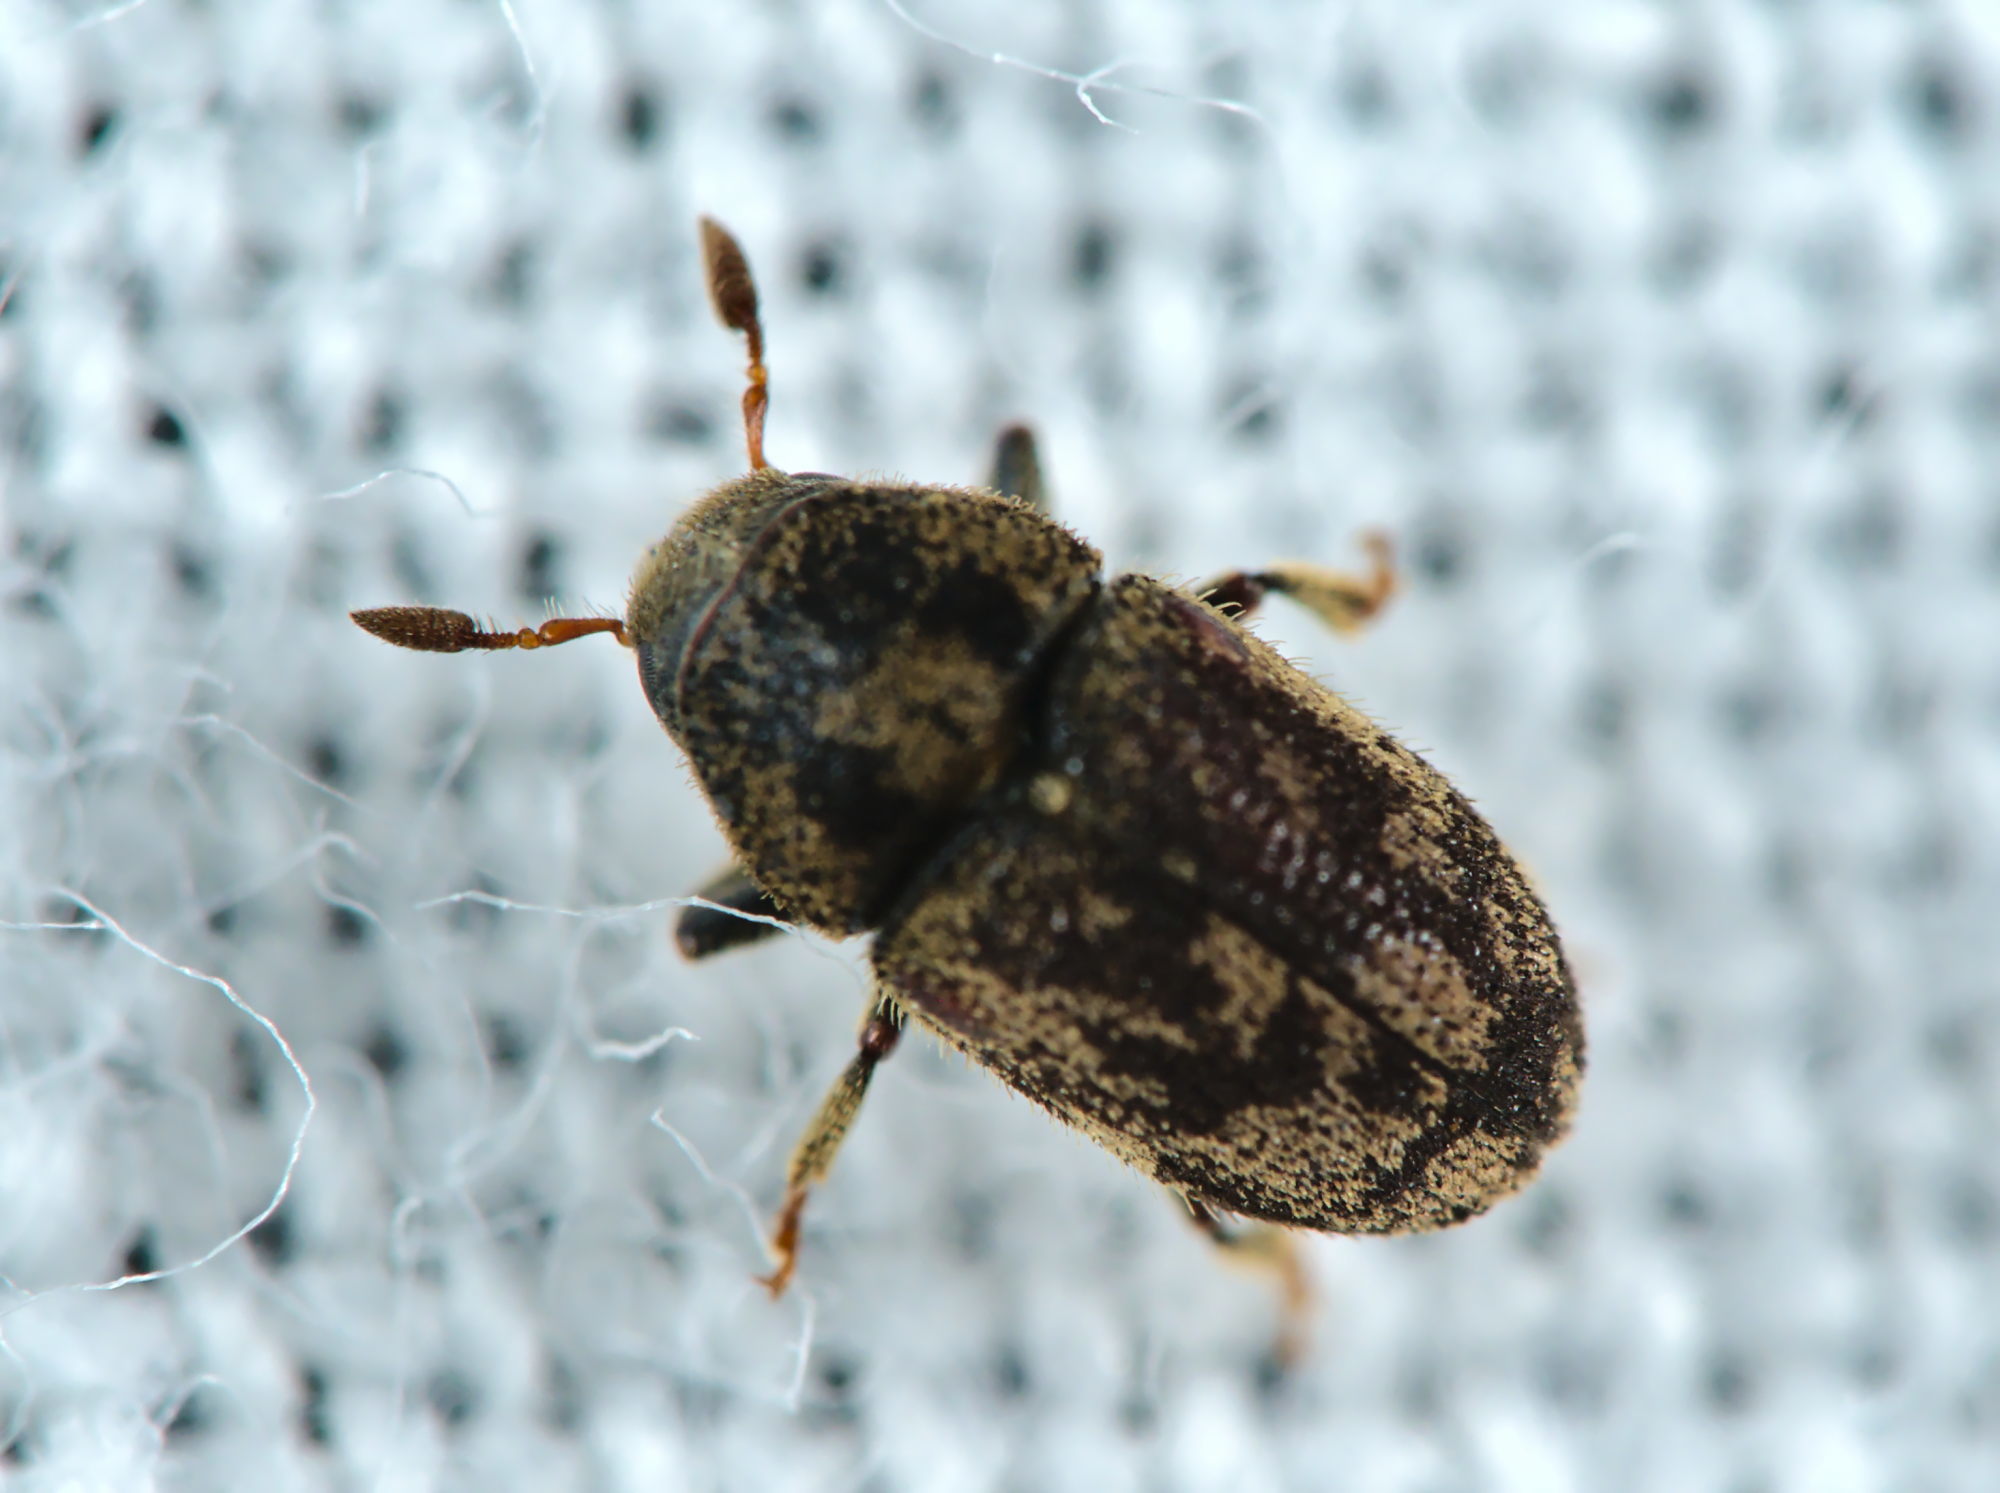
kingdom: Animalia
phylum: Arthropoda
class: Insecta
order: Coleoptera
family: Curculionidae
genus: Hylesinus
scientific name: Hylesinus varius
